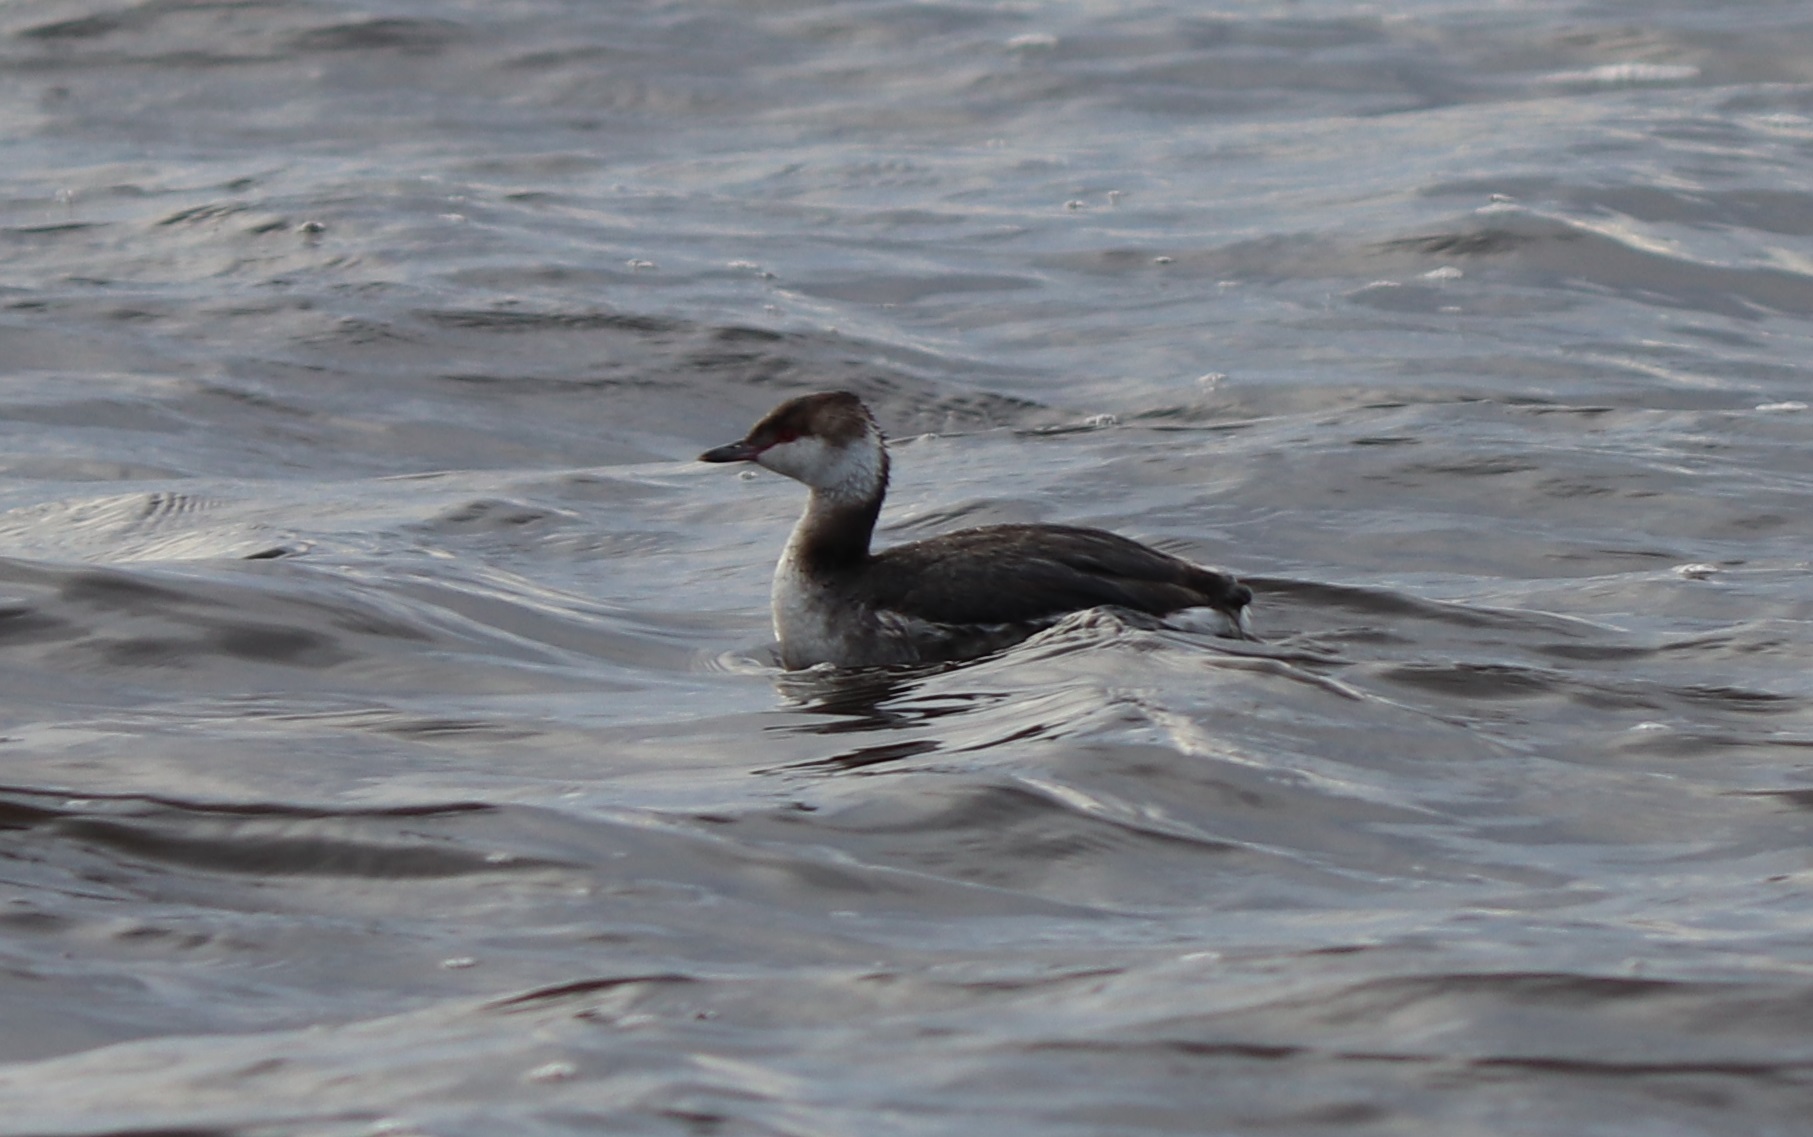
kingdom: Animalia
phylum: Chordata
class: Aves
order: Podicipediformes
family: Podicipedidae
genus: Podiceps
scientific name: Podiceps auritus
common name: Horned grebe
